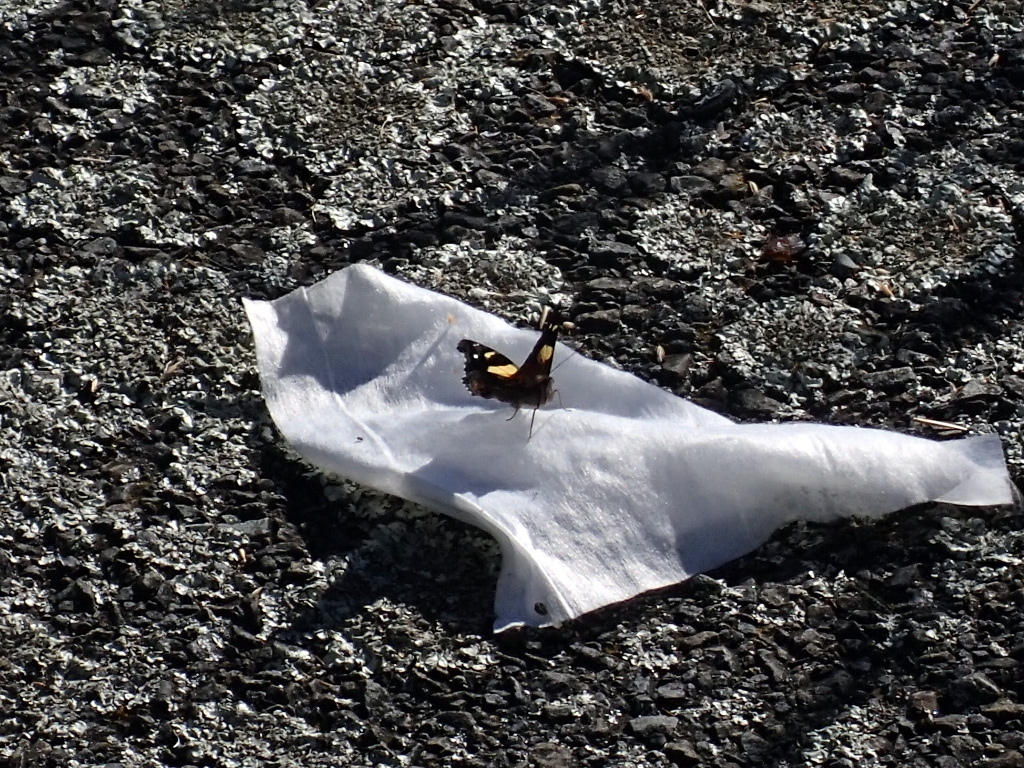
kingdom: Animalia
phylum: Arthropoda
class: Insecta
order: Lepidoptera
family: Nymphalidae
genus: Vanessa
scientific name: Vanessa itea
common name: Yellow admiral
